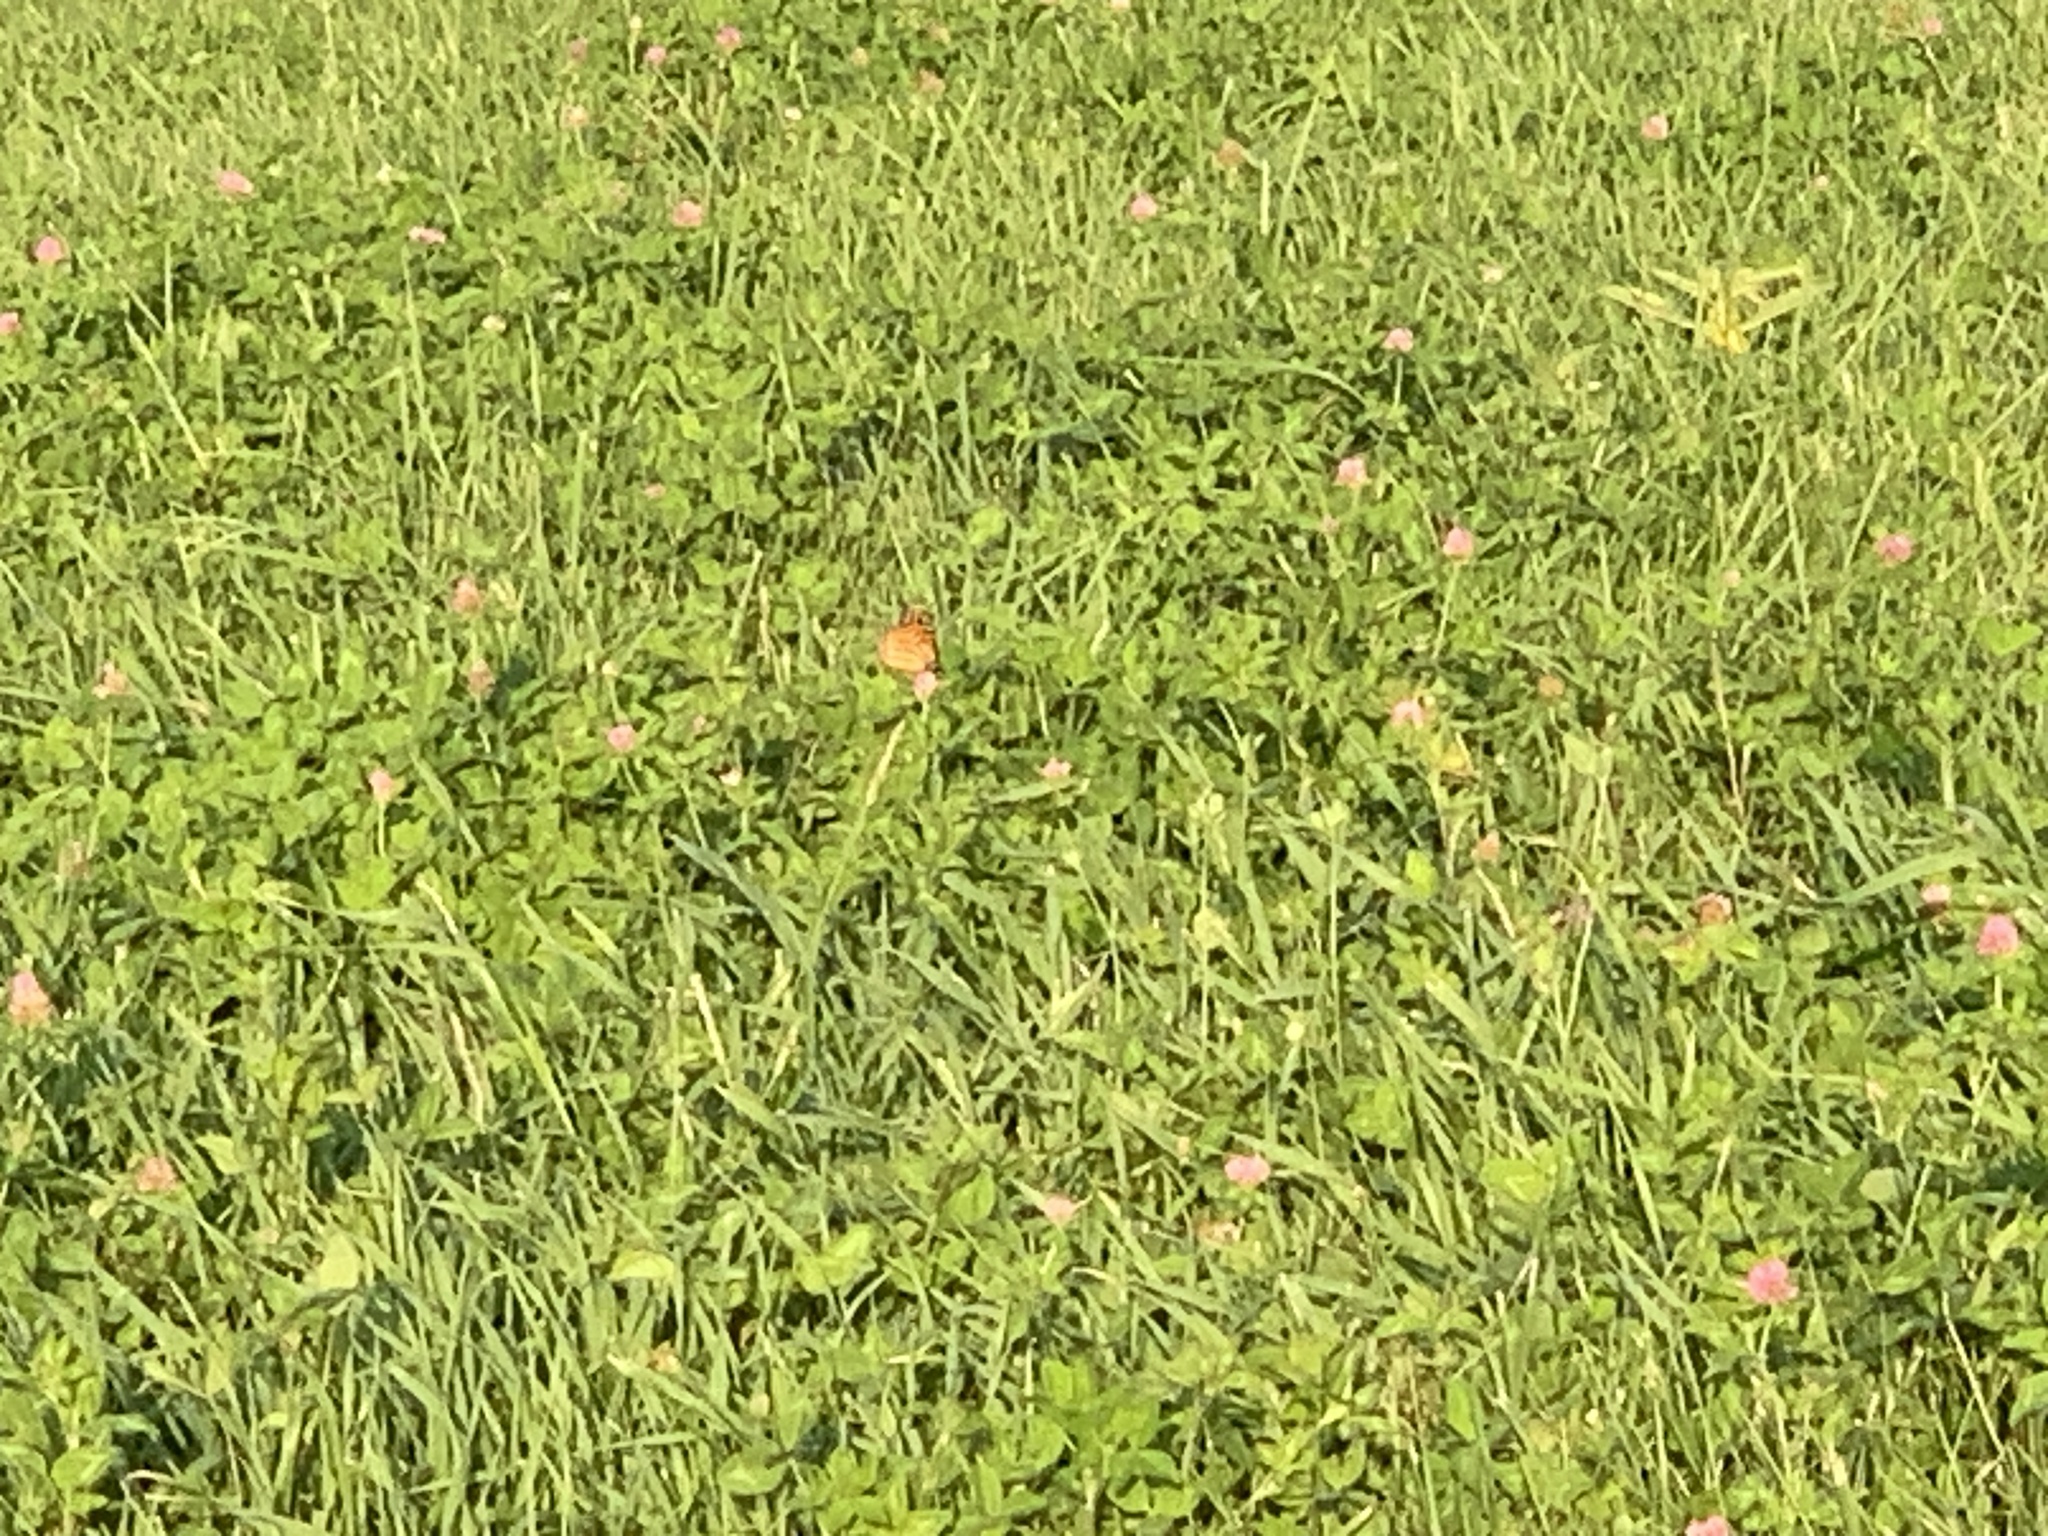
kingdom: Animalia
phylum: Arthropoda
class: Insecta
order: Lepidoptera
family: Nymphalidae
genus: Danaus
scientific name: Danaus plexippus
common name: Monarch
